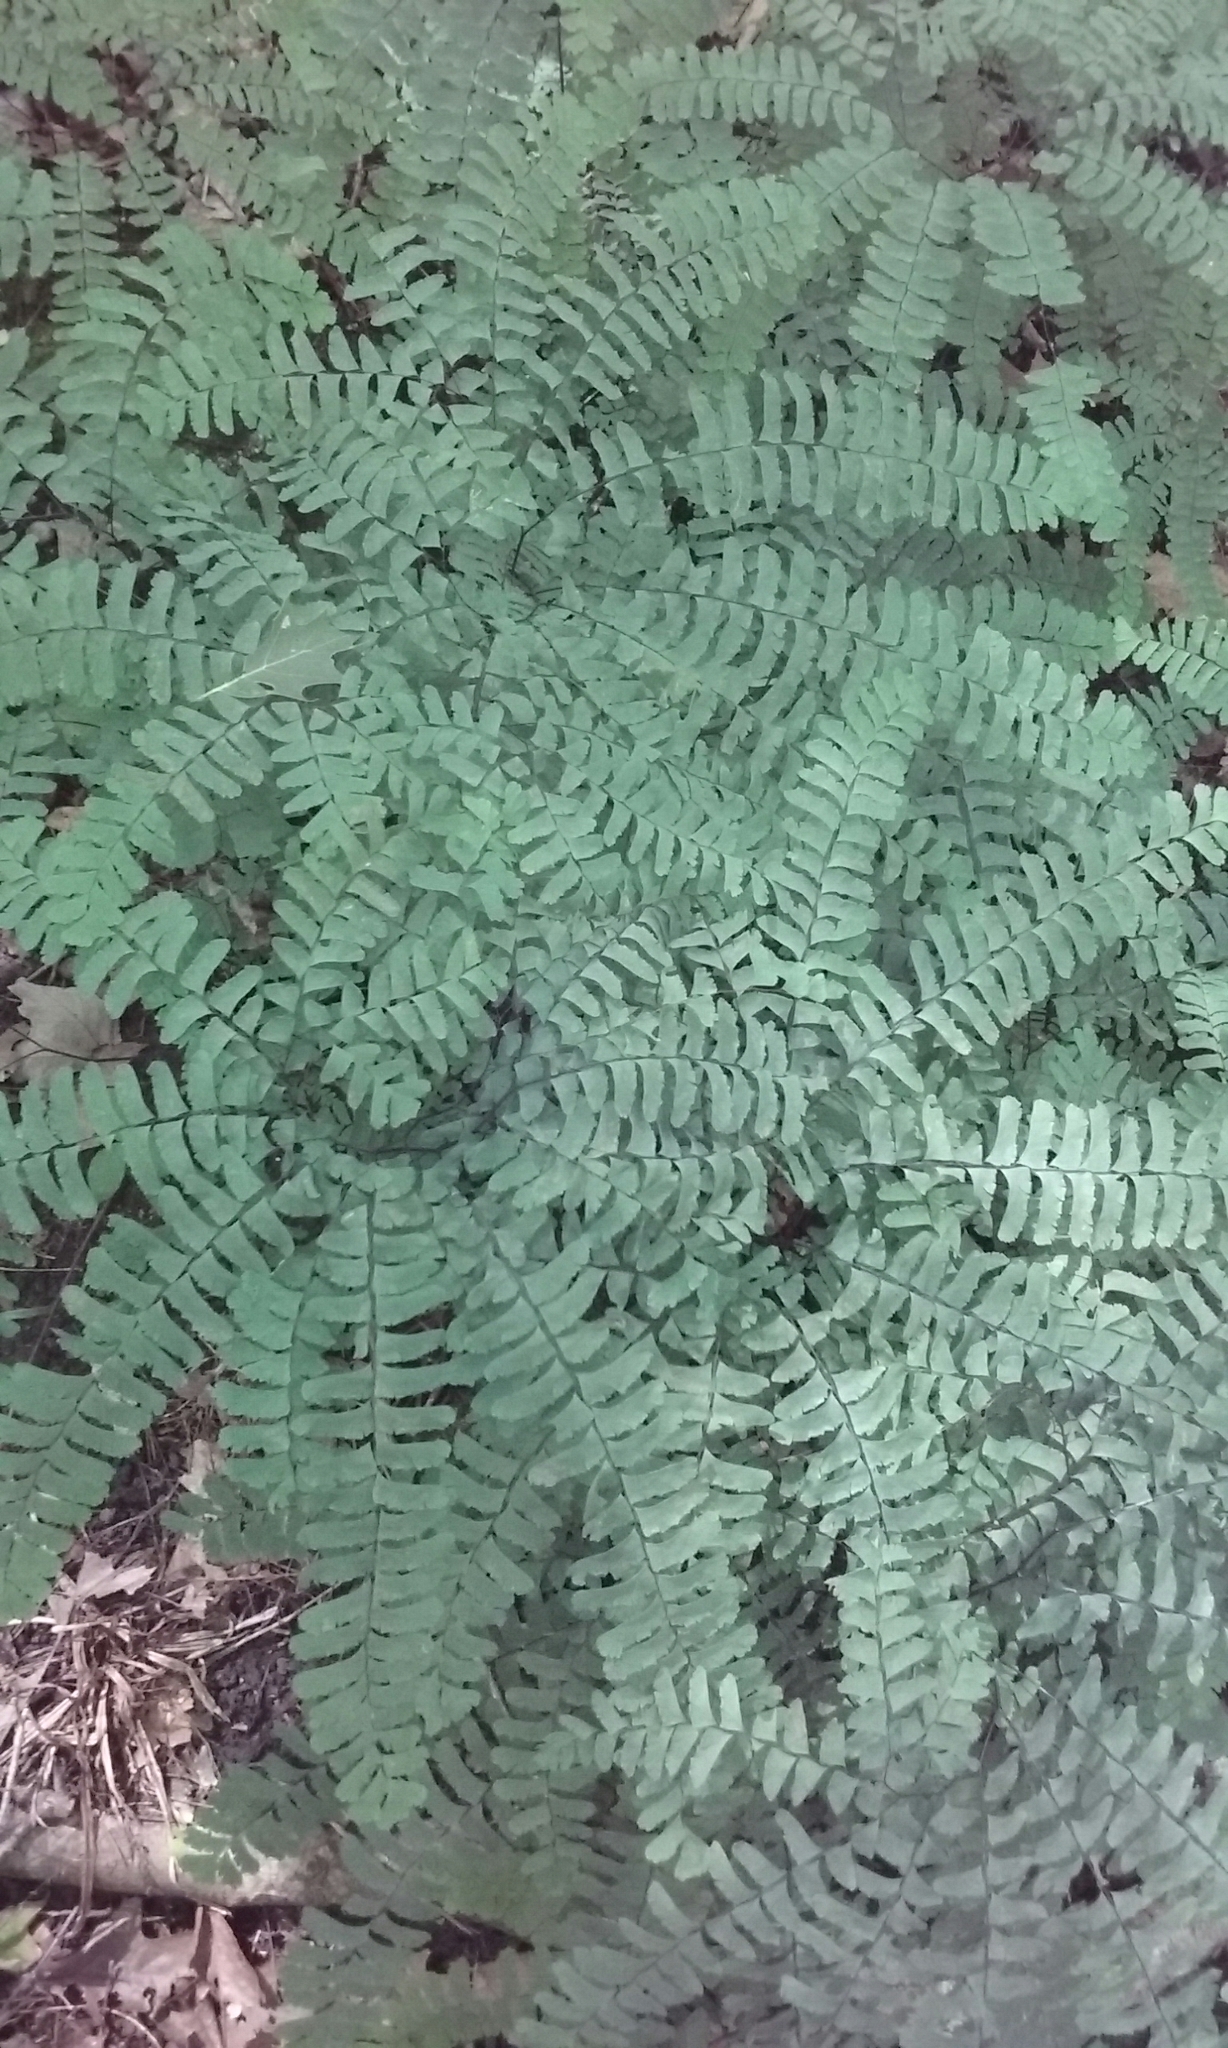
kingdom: Plantae
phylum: Tracheophyta
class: Polypodiopsida
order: Polypodiales
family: Pteridaceae
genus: Adiantum
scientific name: Adiantum pedatum
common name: Five-finger fern
